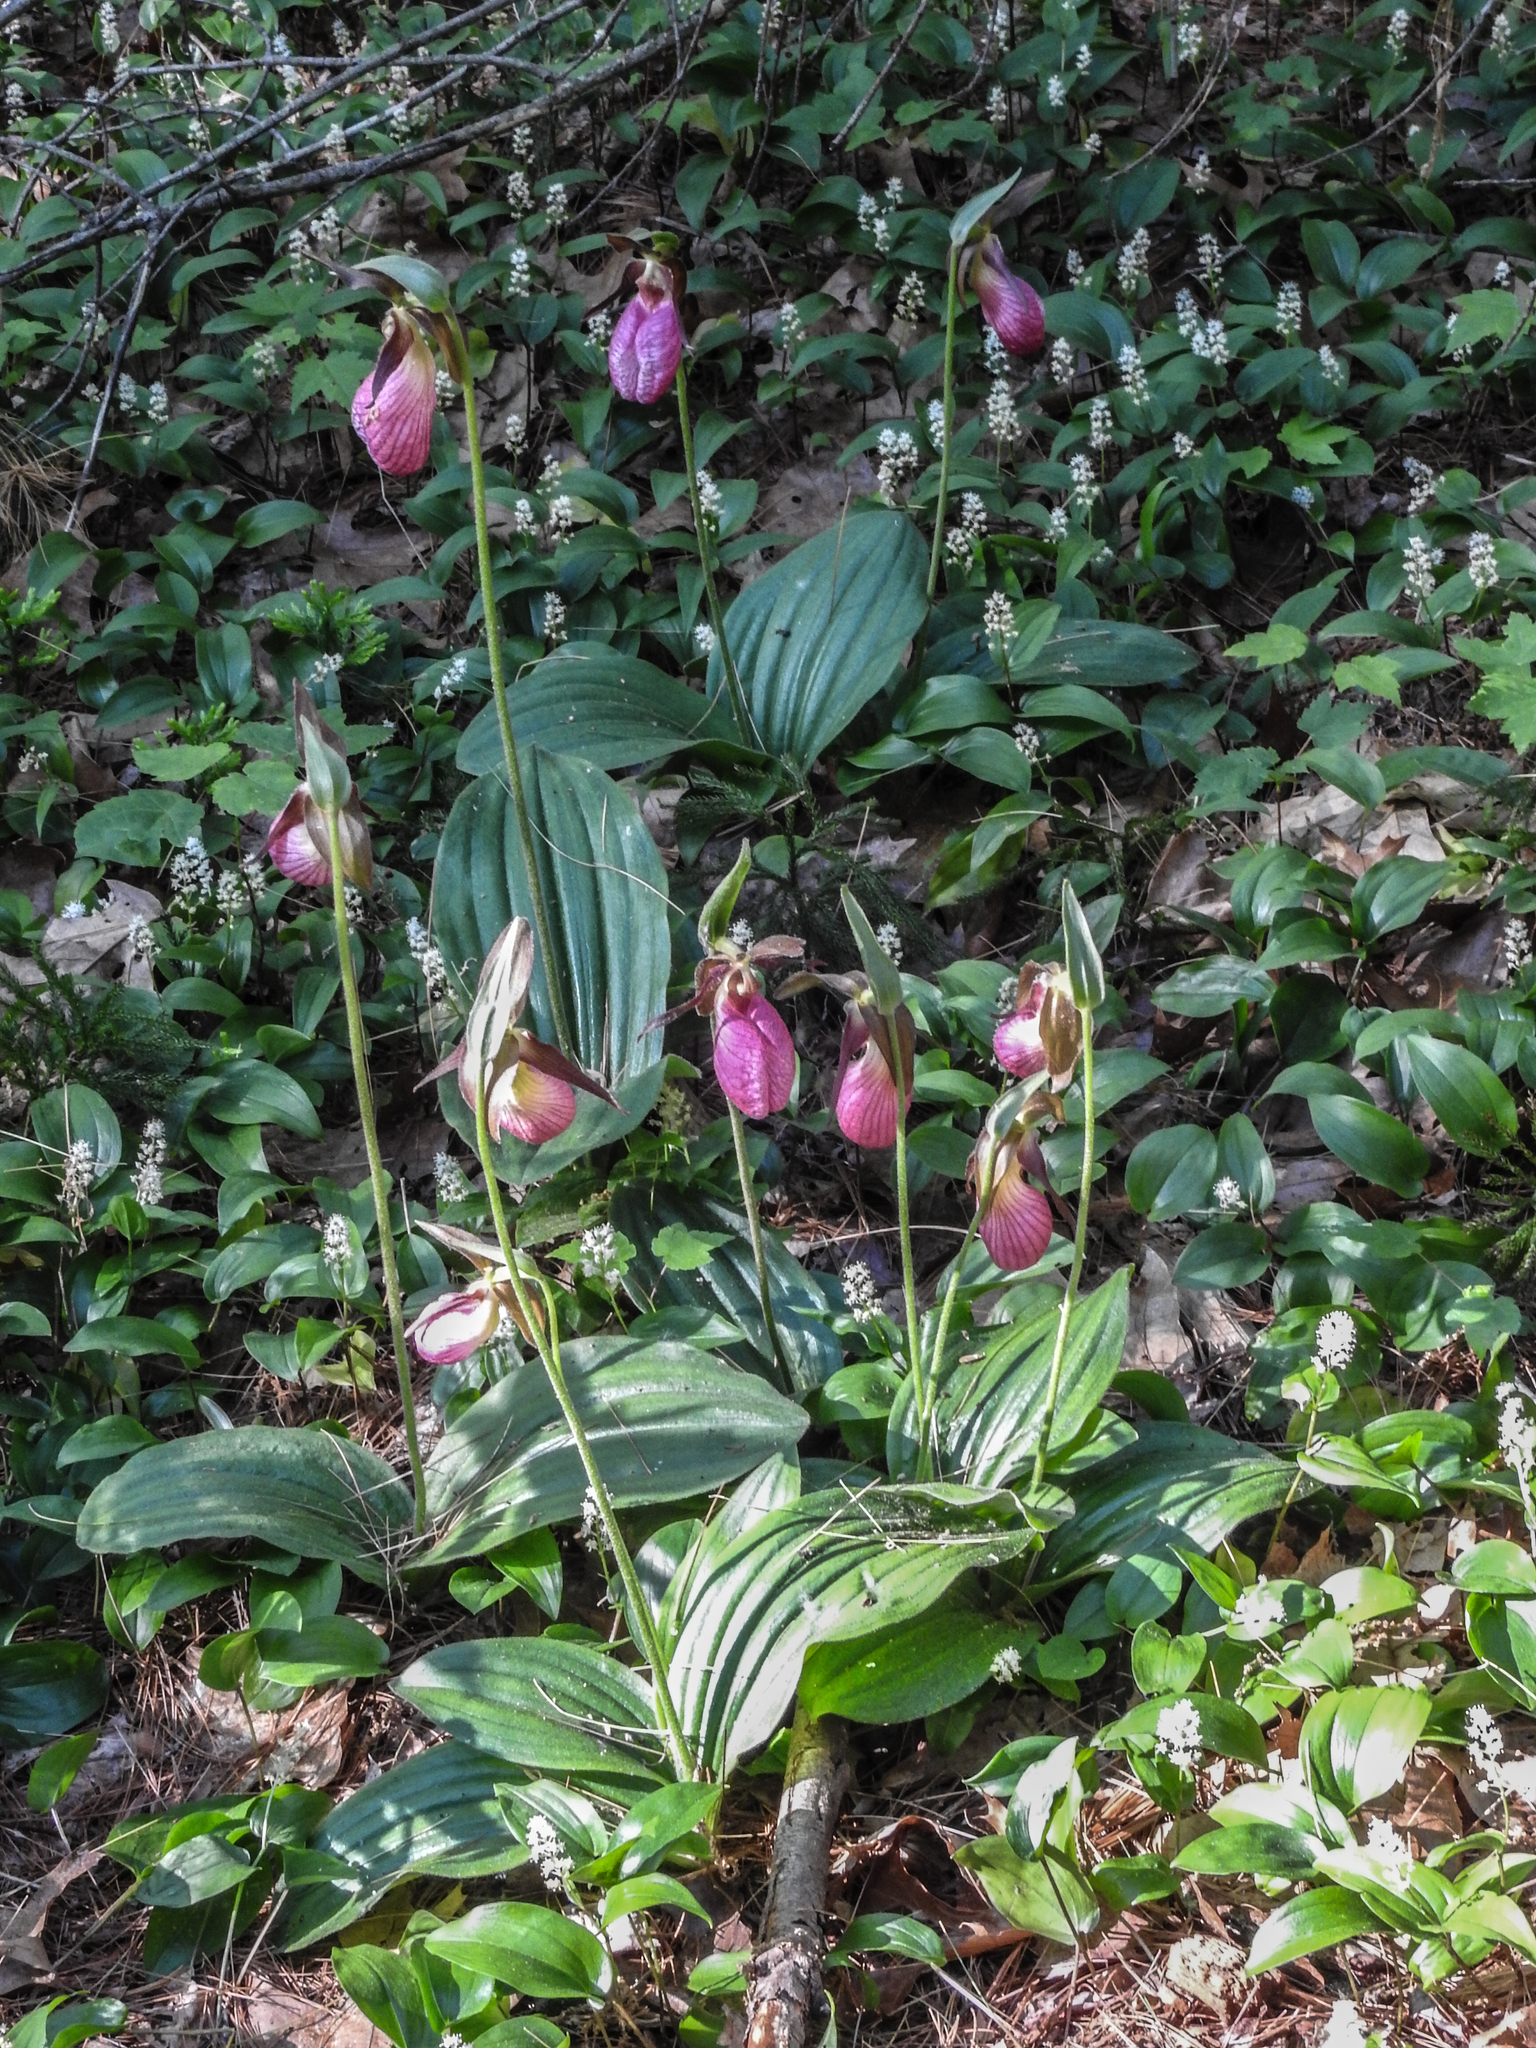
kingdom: Plantae
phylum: Tracheophyta
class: Liliopsida
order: Asparagales
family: Orchidaceae
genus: Cypripedium
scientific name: Cypripedium acaule
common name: Pink lady's-slipper
